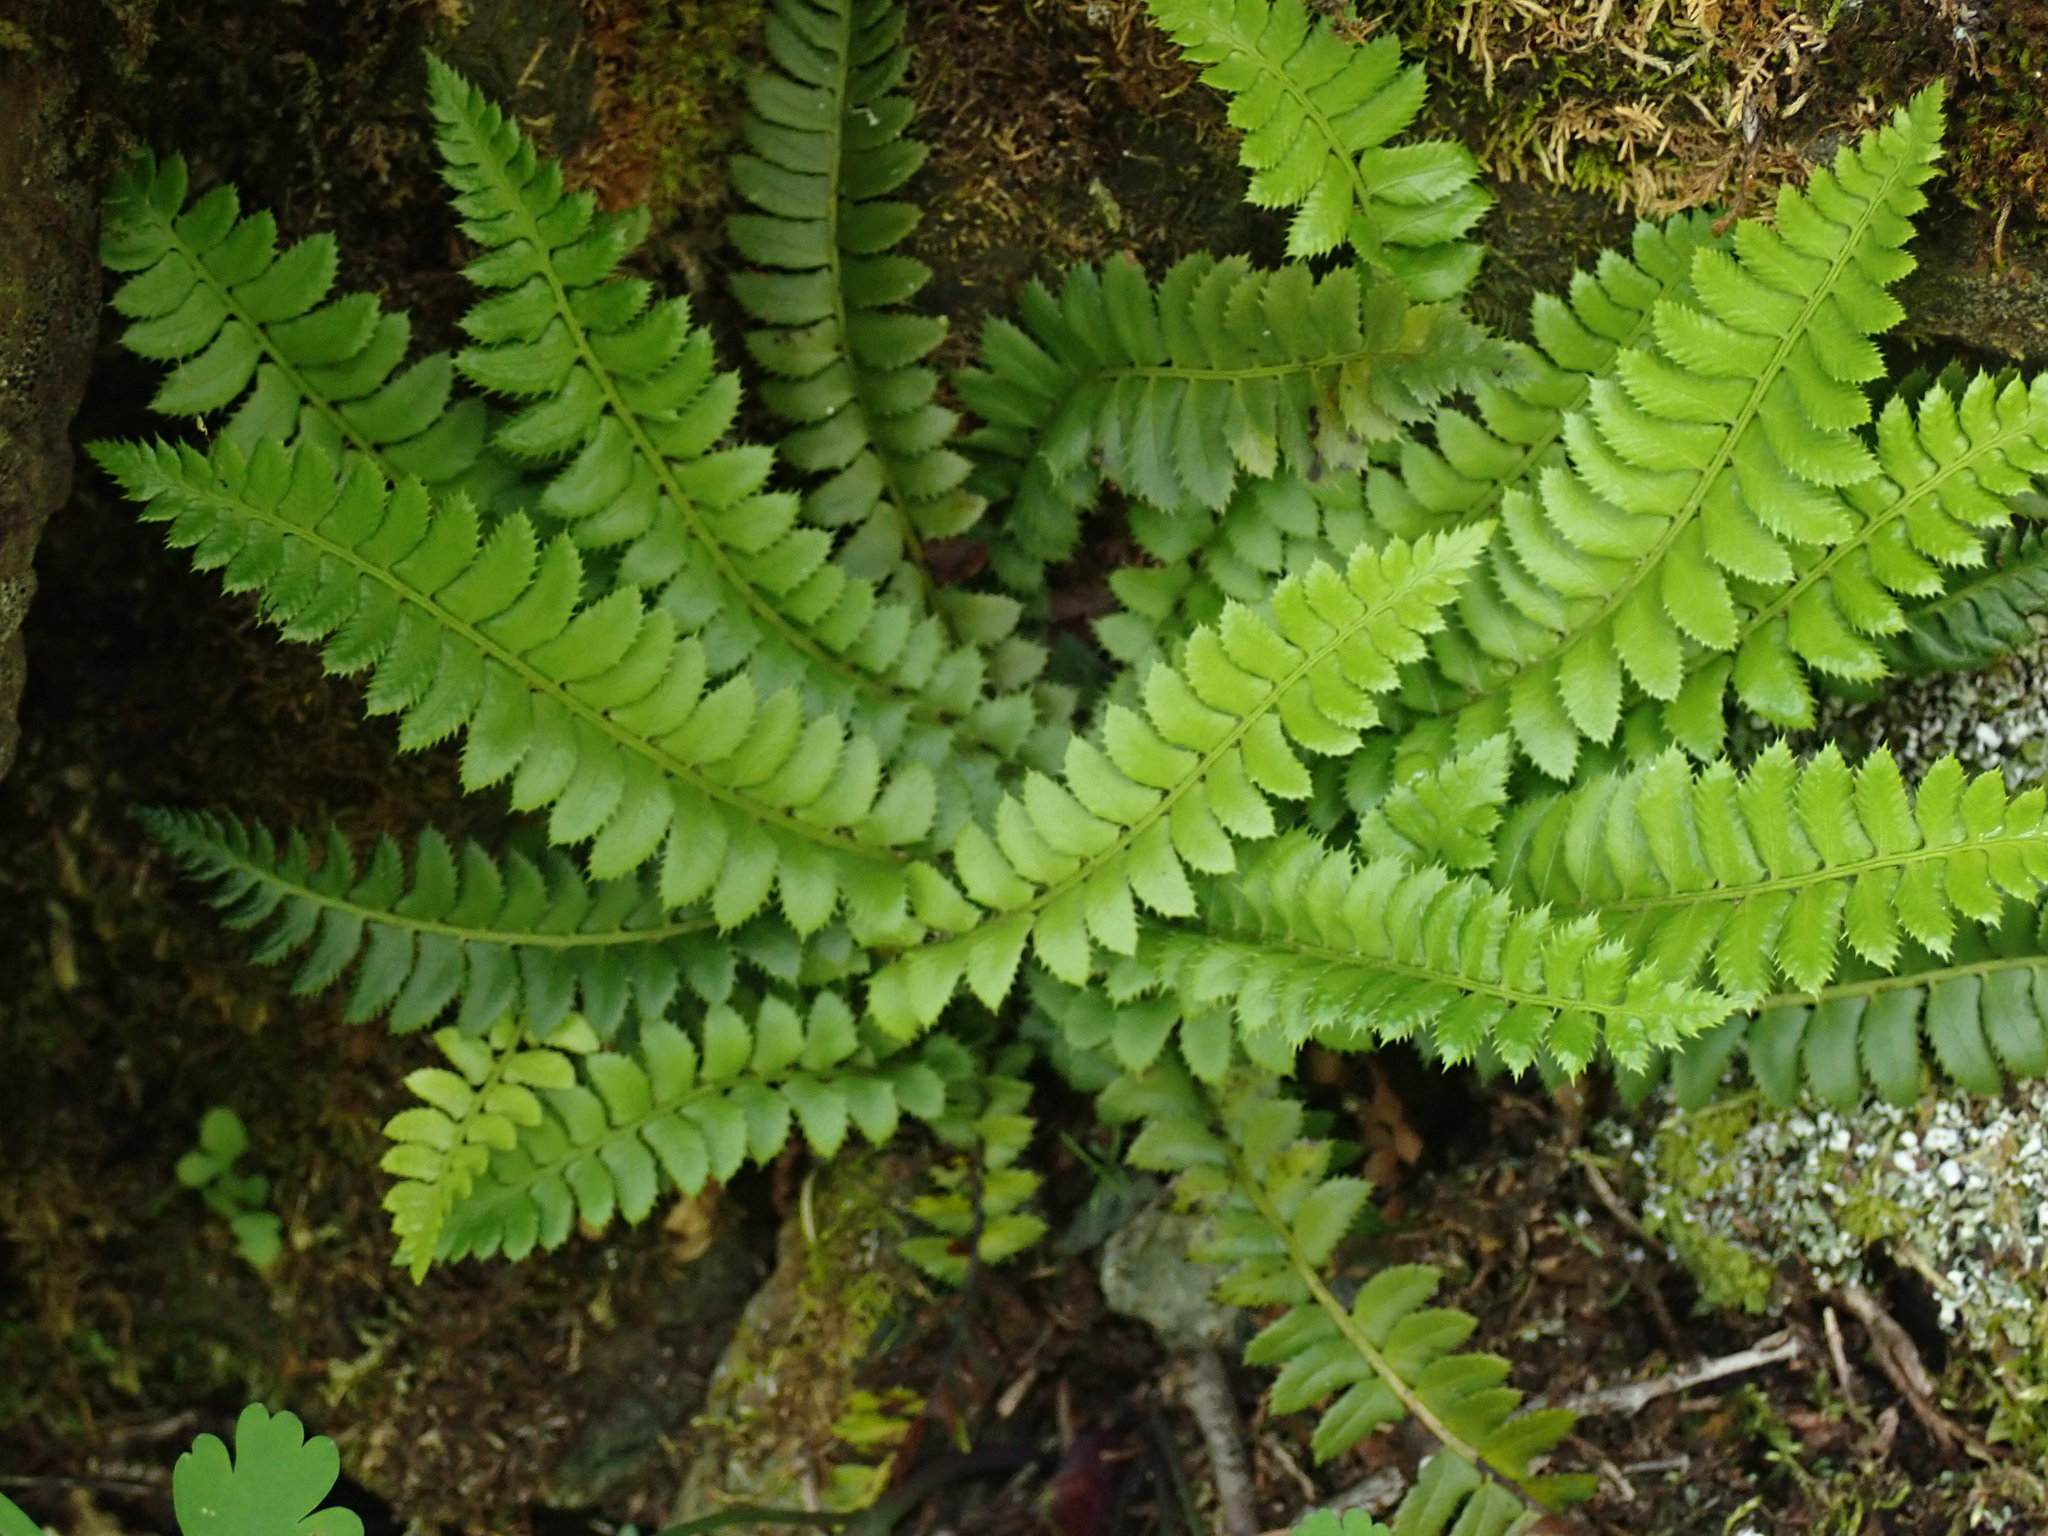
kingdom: Plantae
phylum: Tracheophyta
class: Polypodiopsida
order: Polypodiales
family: Dryopteridaceae
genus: Polystichum
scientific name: Polystichum lonchitis
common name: Holly fern
